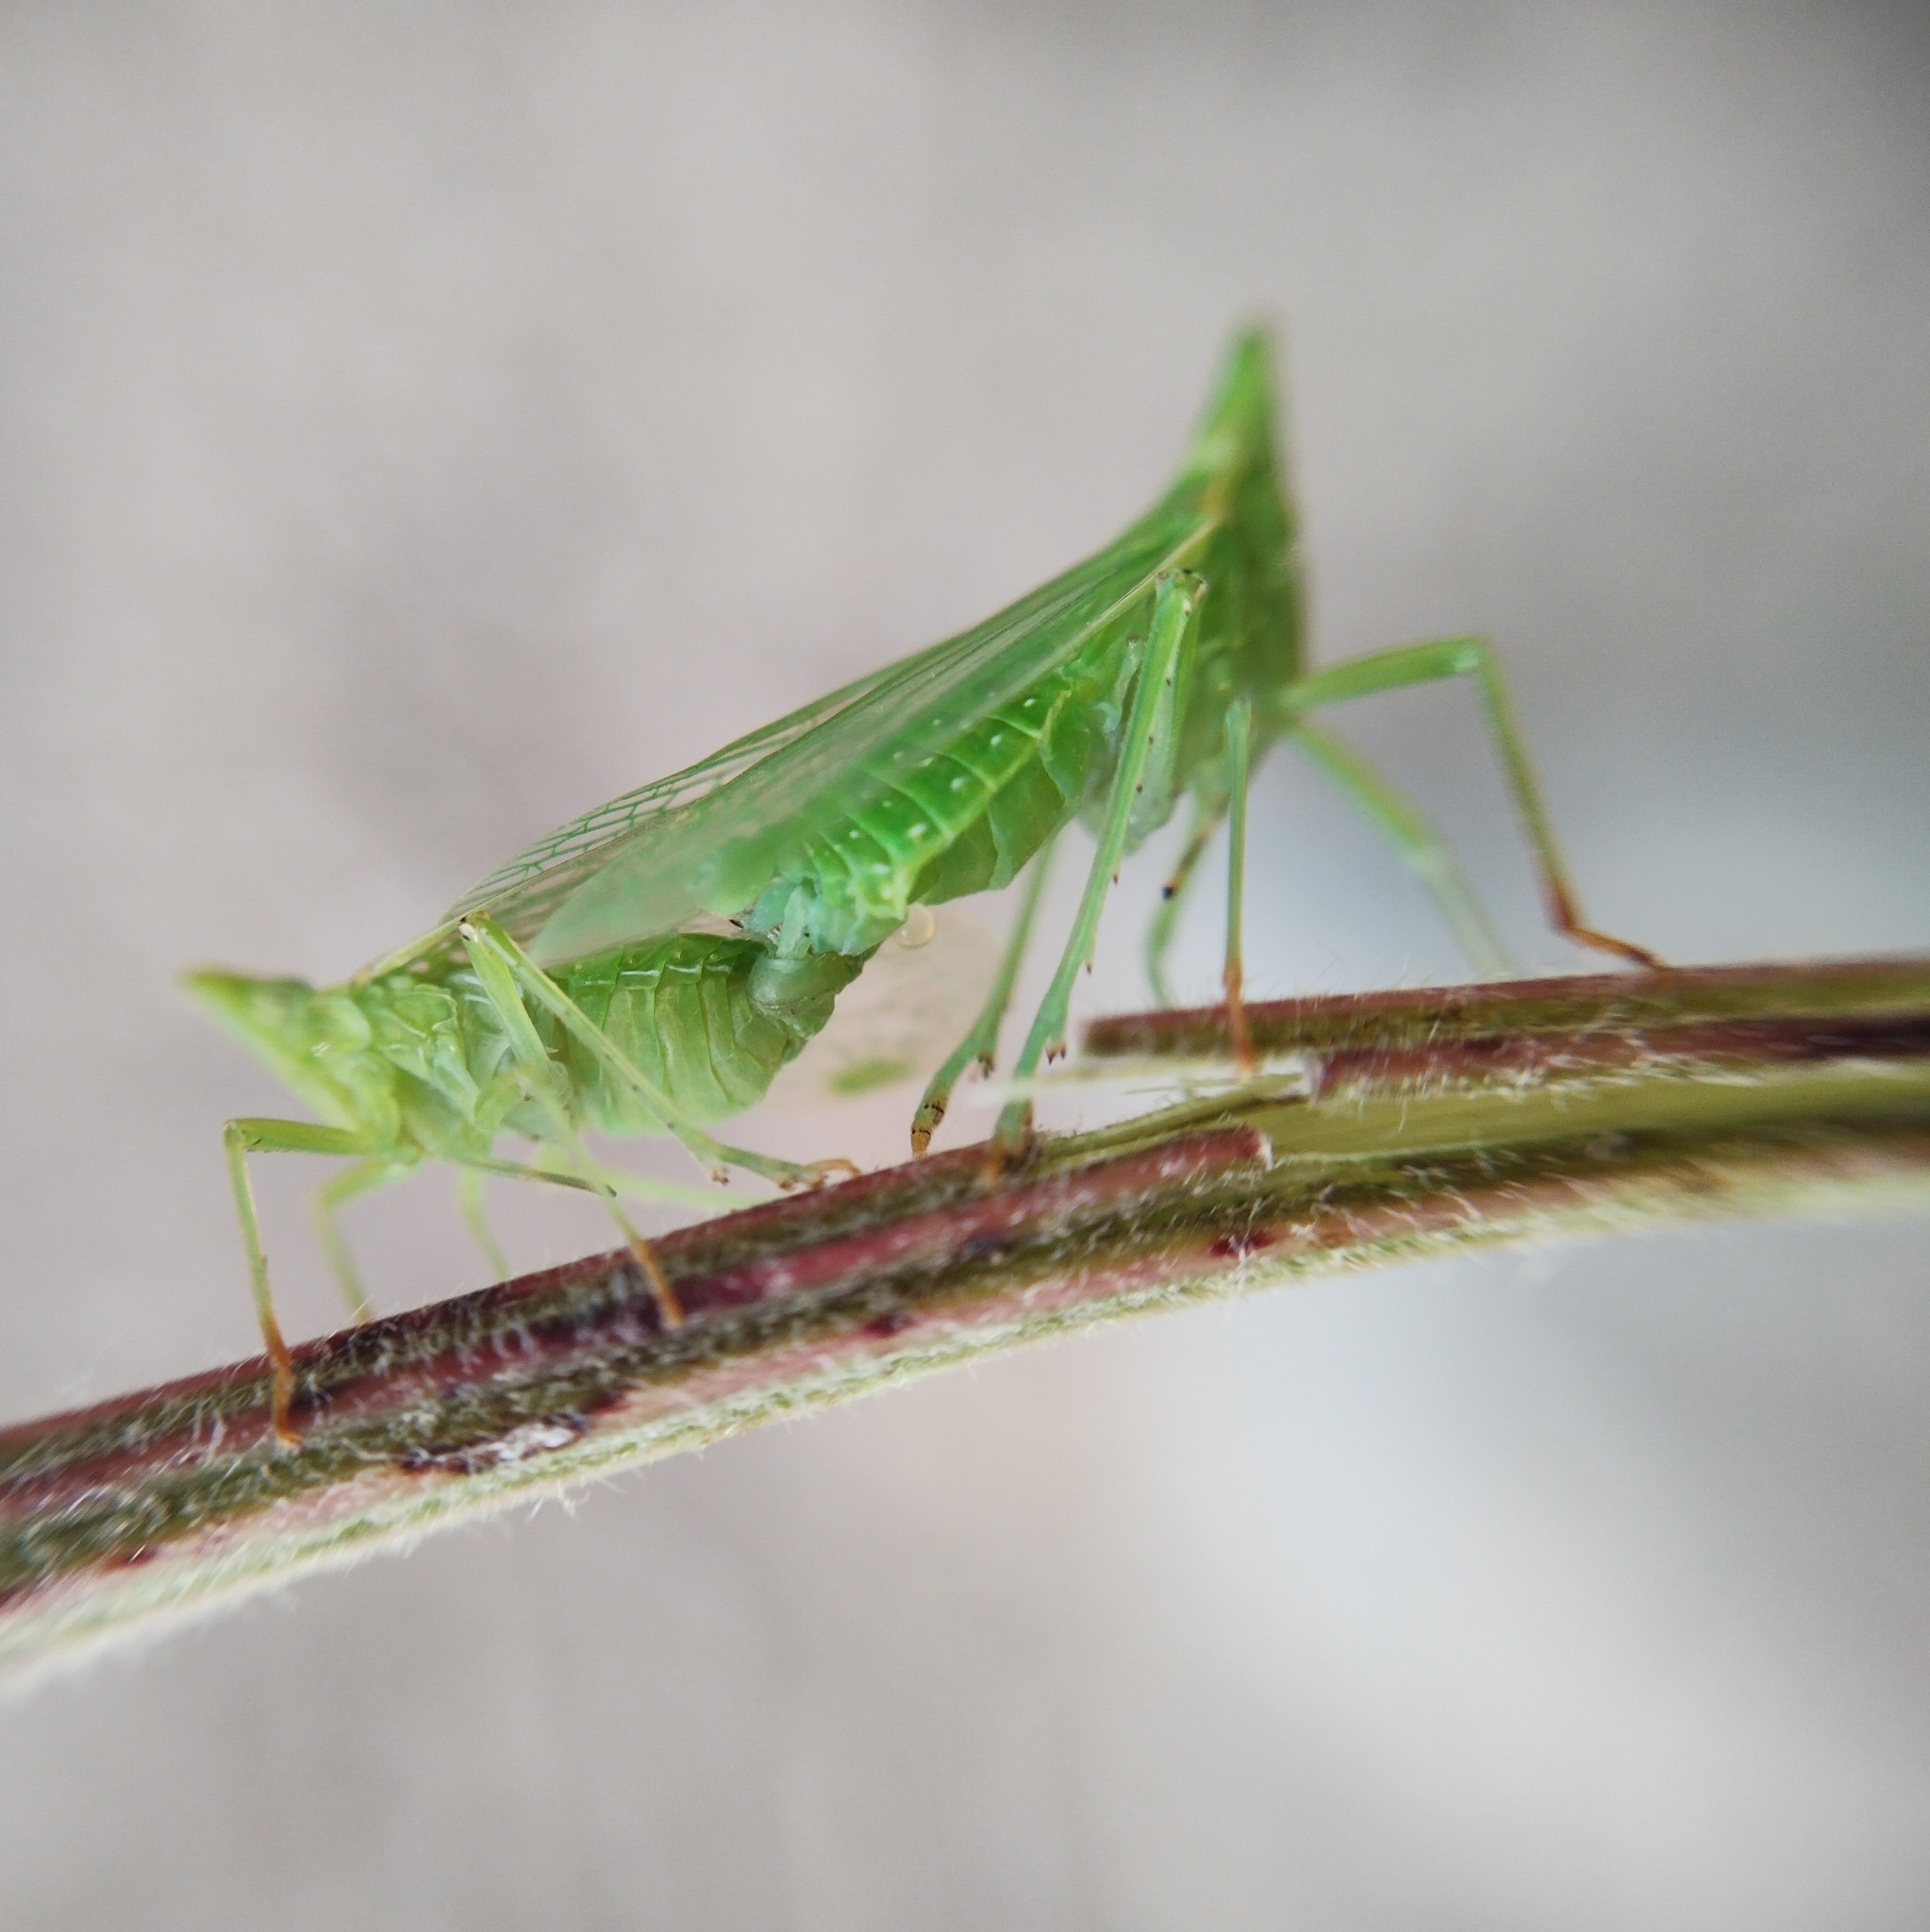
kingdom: Animalia
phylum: Arthropoda
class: Insecta
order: Hemiptera
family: Dictyopharidae
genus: Dictyophara
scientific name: Dictyophara europaea
